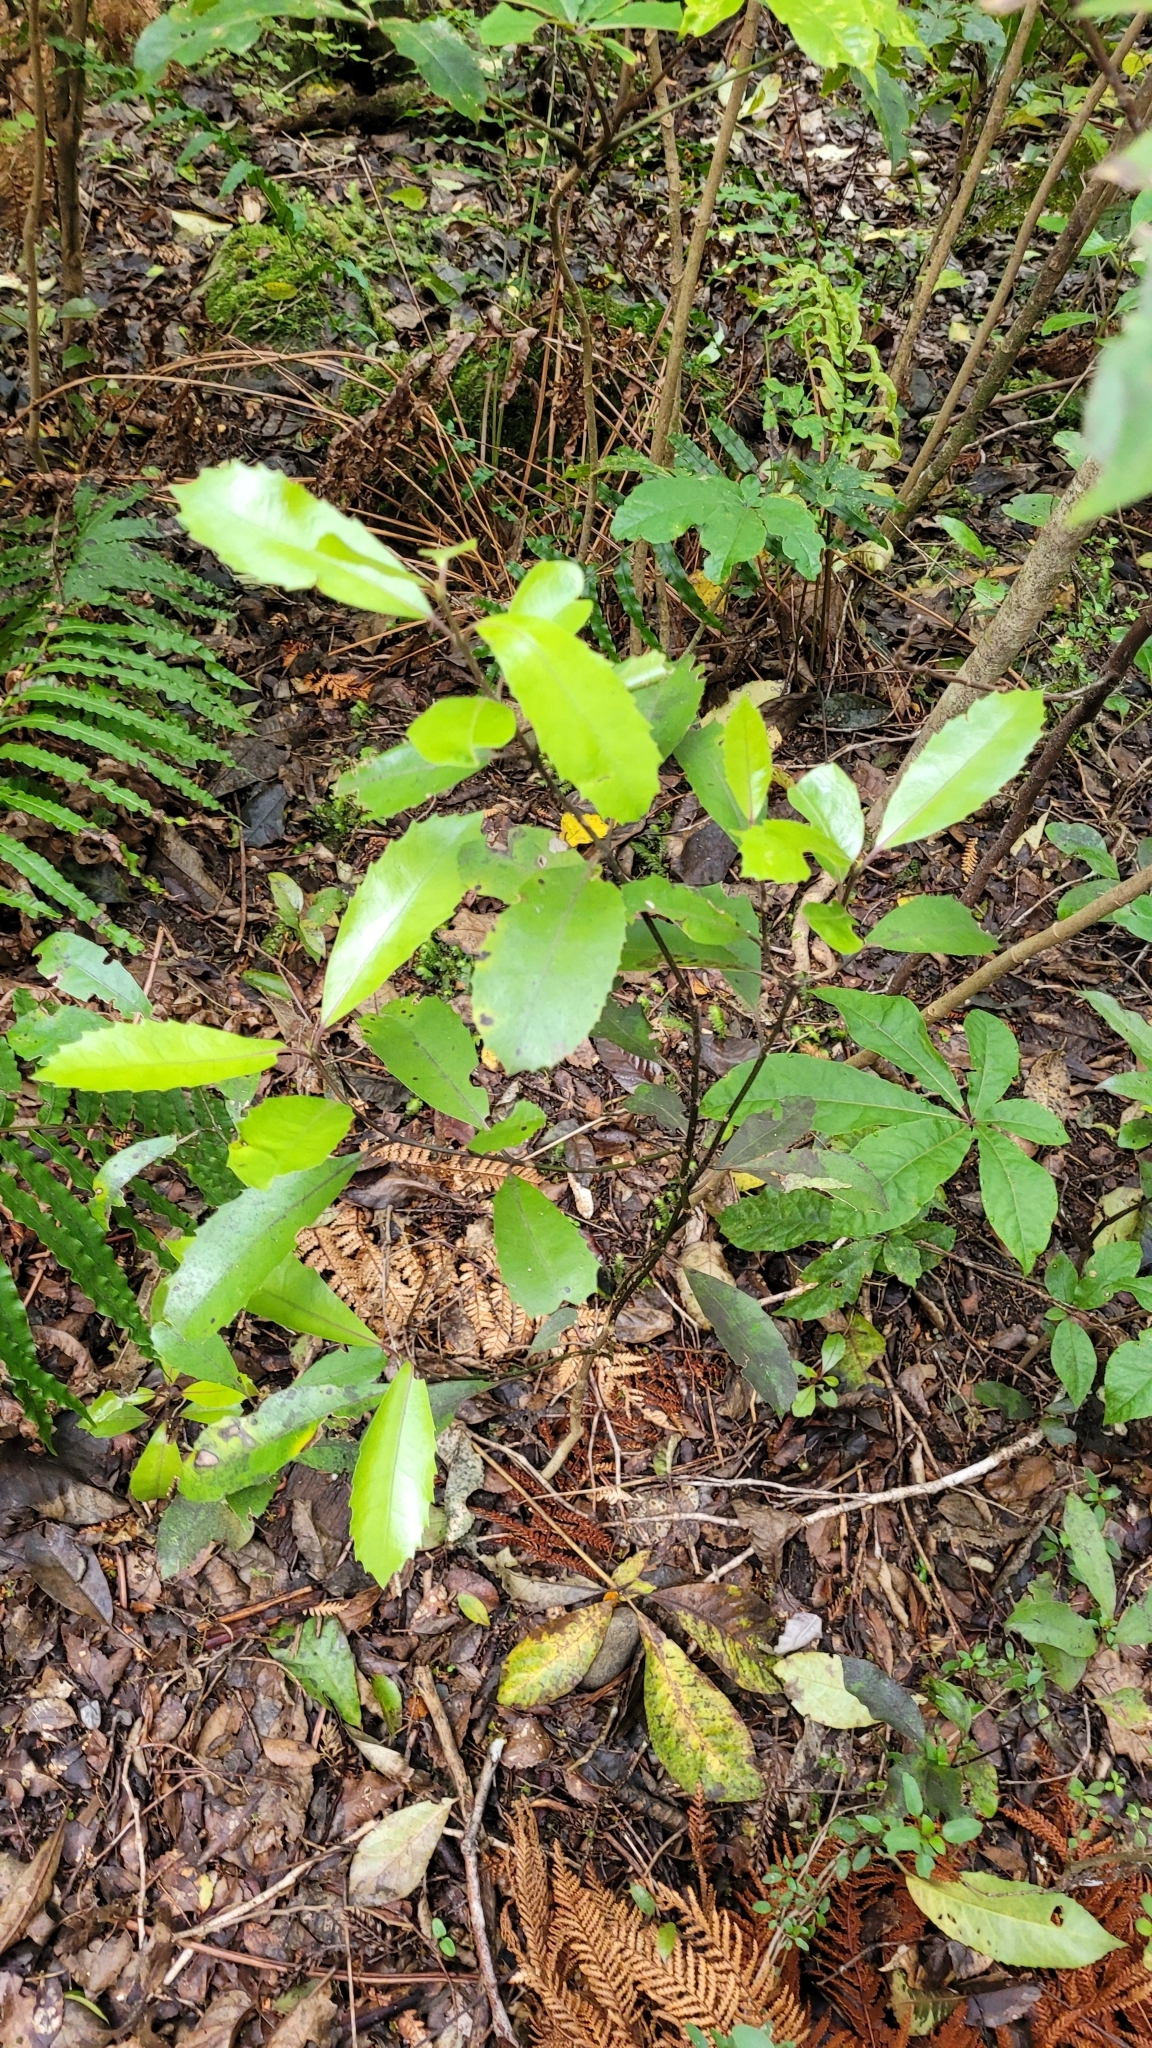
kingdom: Plantae
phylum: Tracheophyta
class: Magnoliopsida
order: Laurales
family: Monimiaceae
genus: Hedycarya
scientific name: Hedycarya arborea
